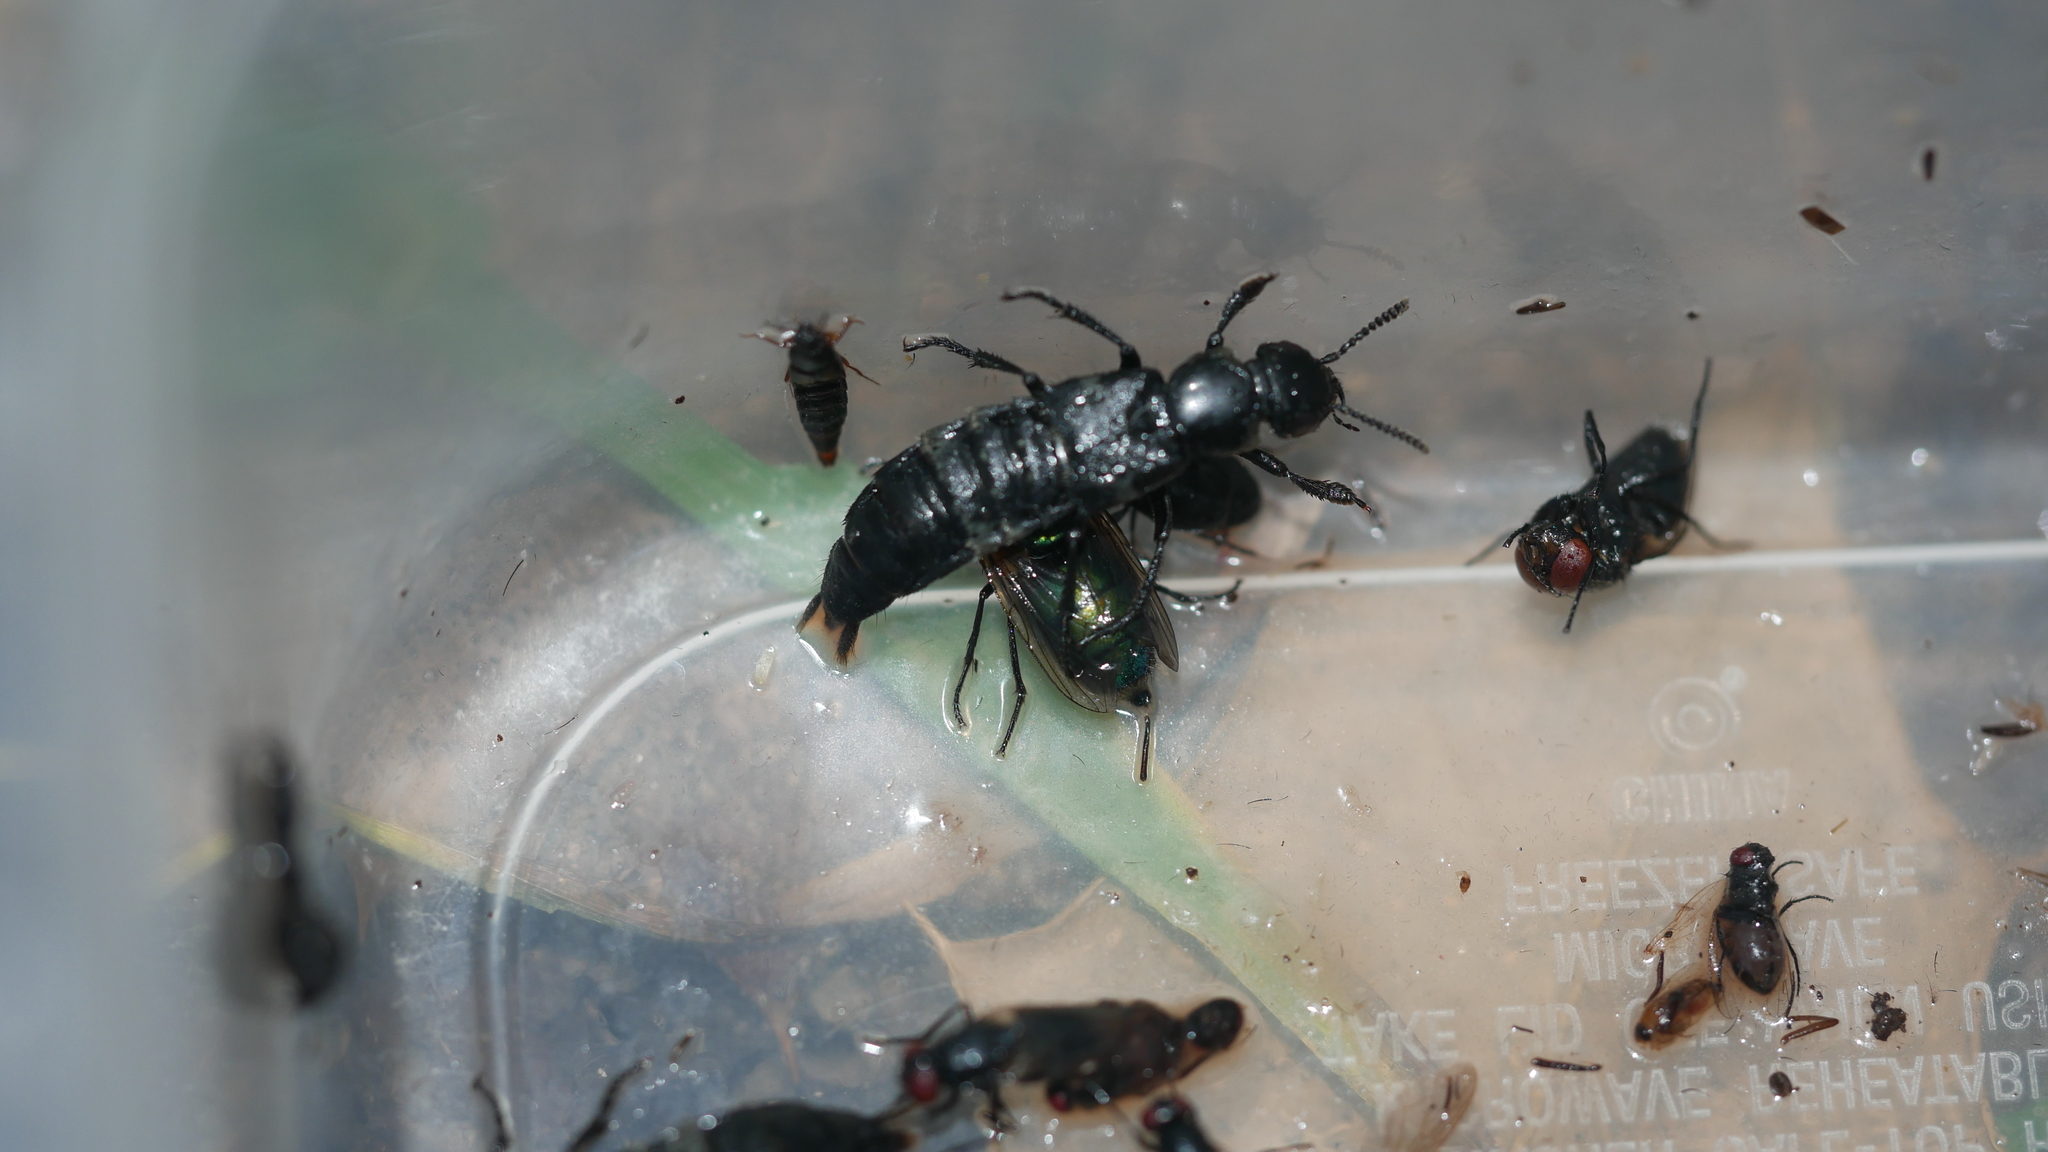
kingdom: Animalia
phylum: Arthropoda
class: Insecta
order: Coleoptera
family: Staphylinidae
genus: Creophilus
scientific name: Creophilus maxillosus
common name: Hairy rove beetle
